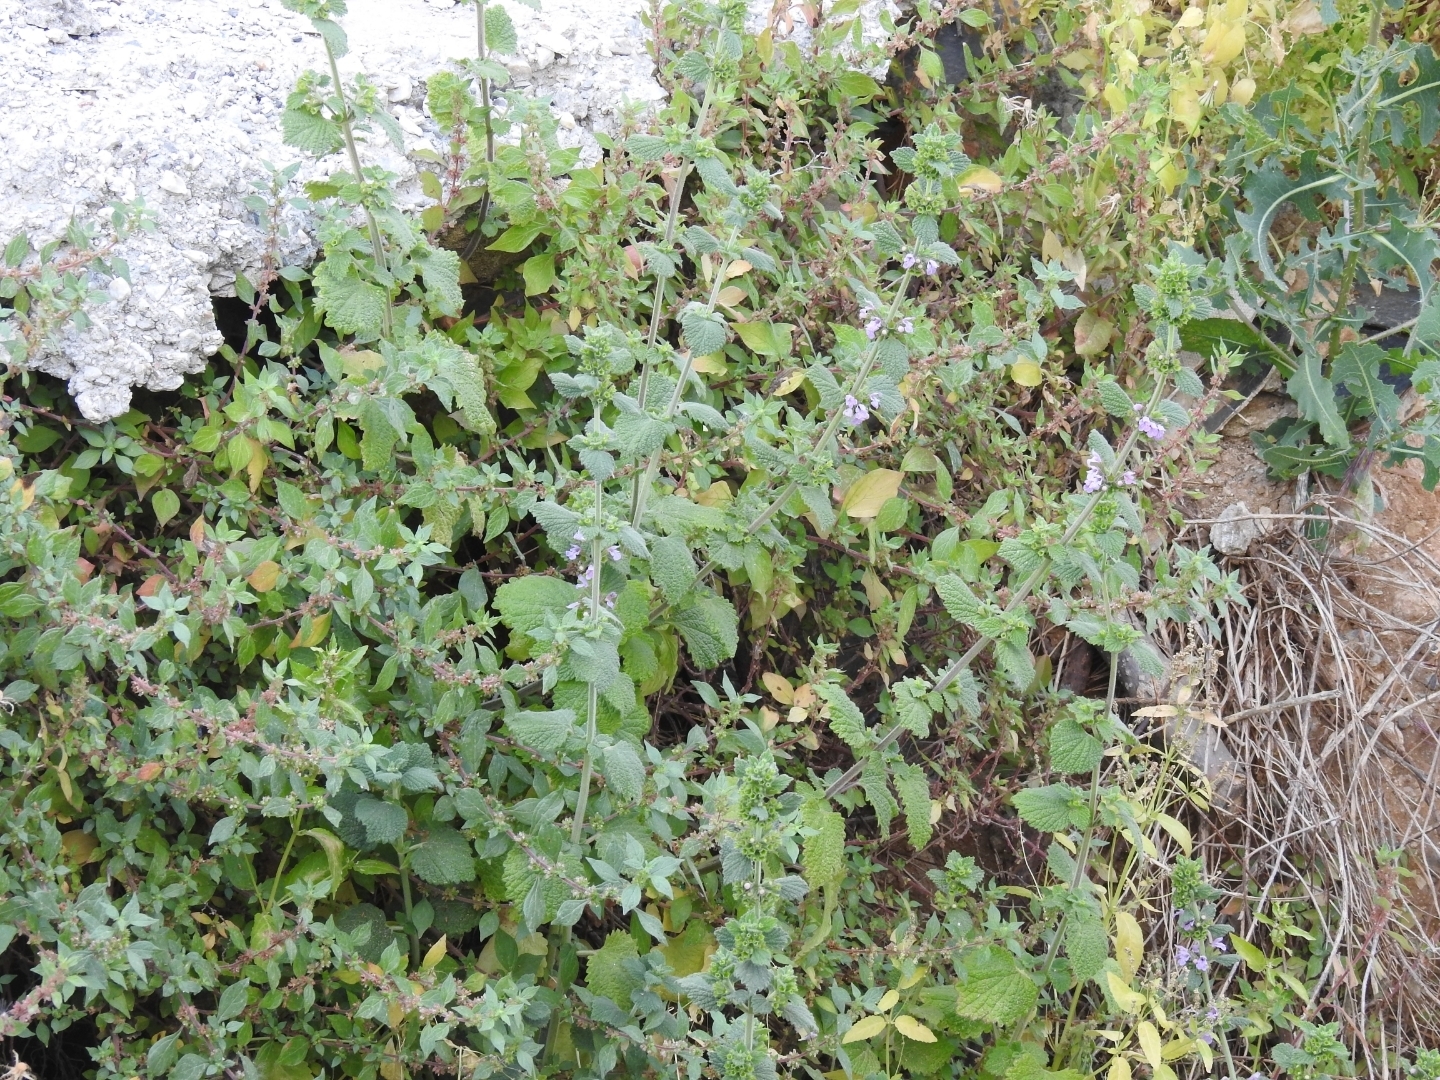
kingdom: Plantae
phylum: Tracheophyta
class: Magnoliopsida
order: Lamiales
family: Lamiaceae
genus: Ballota
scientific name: Ballota nigra
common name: Black horehound
